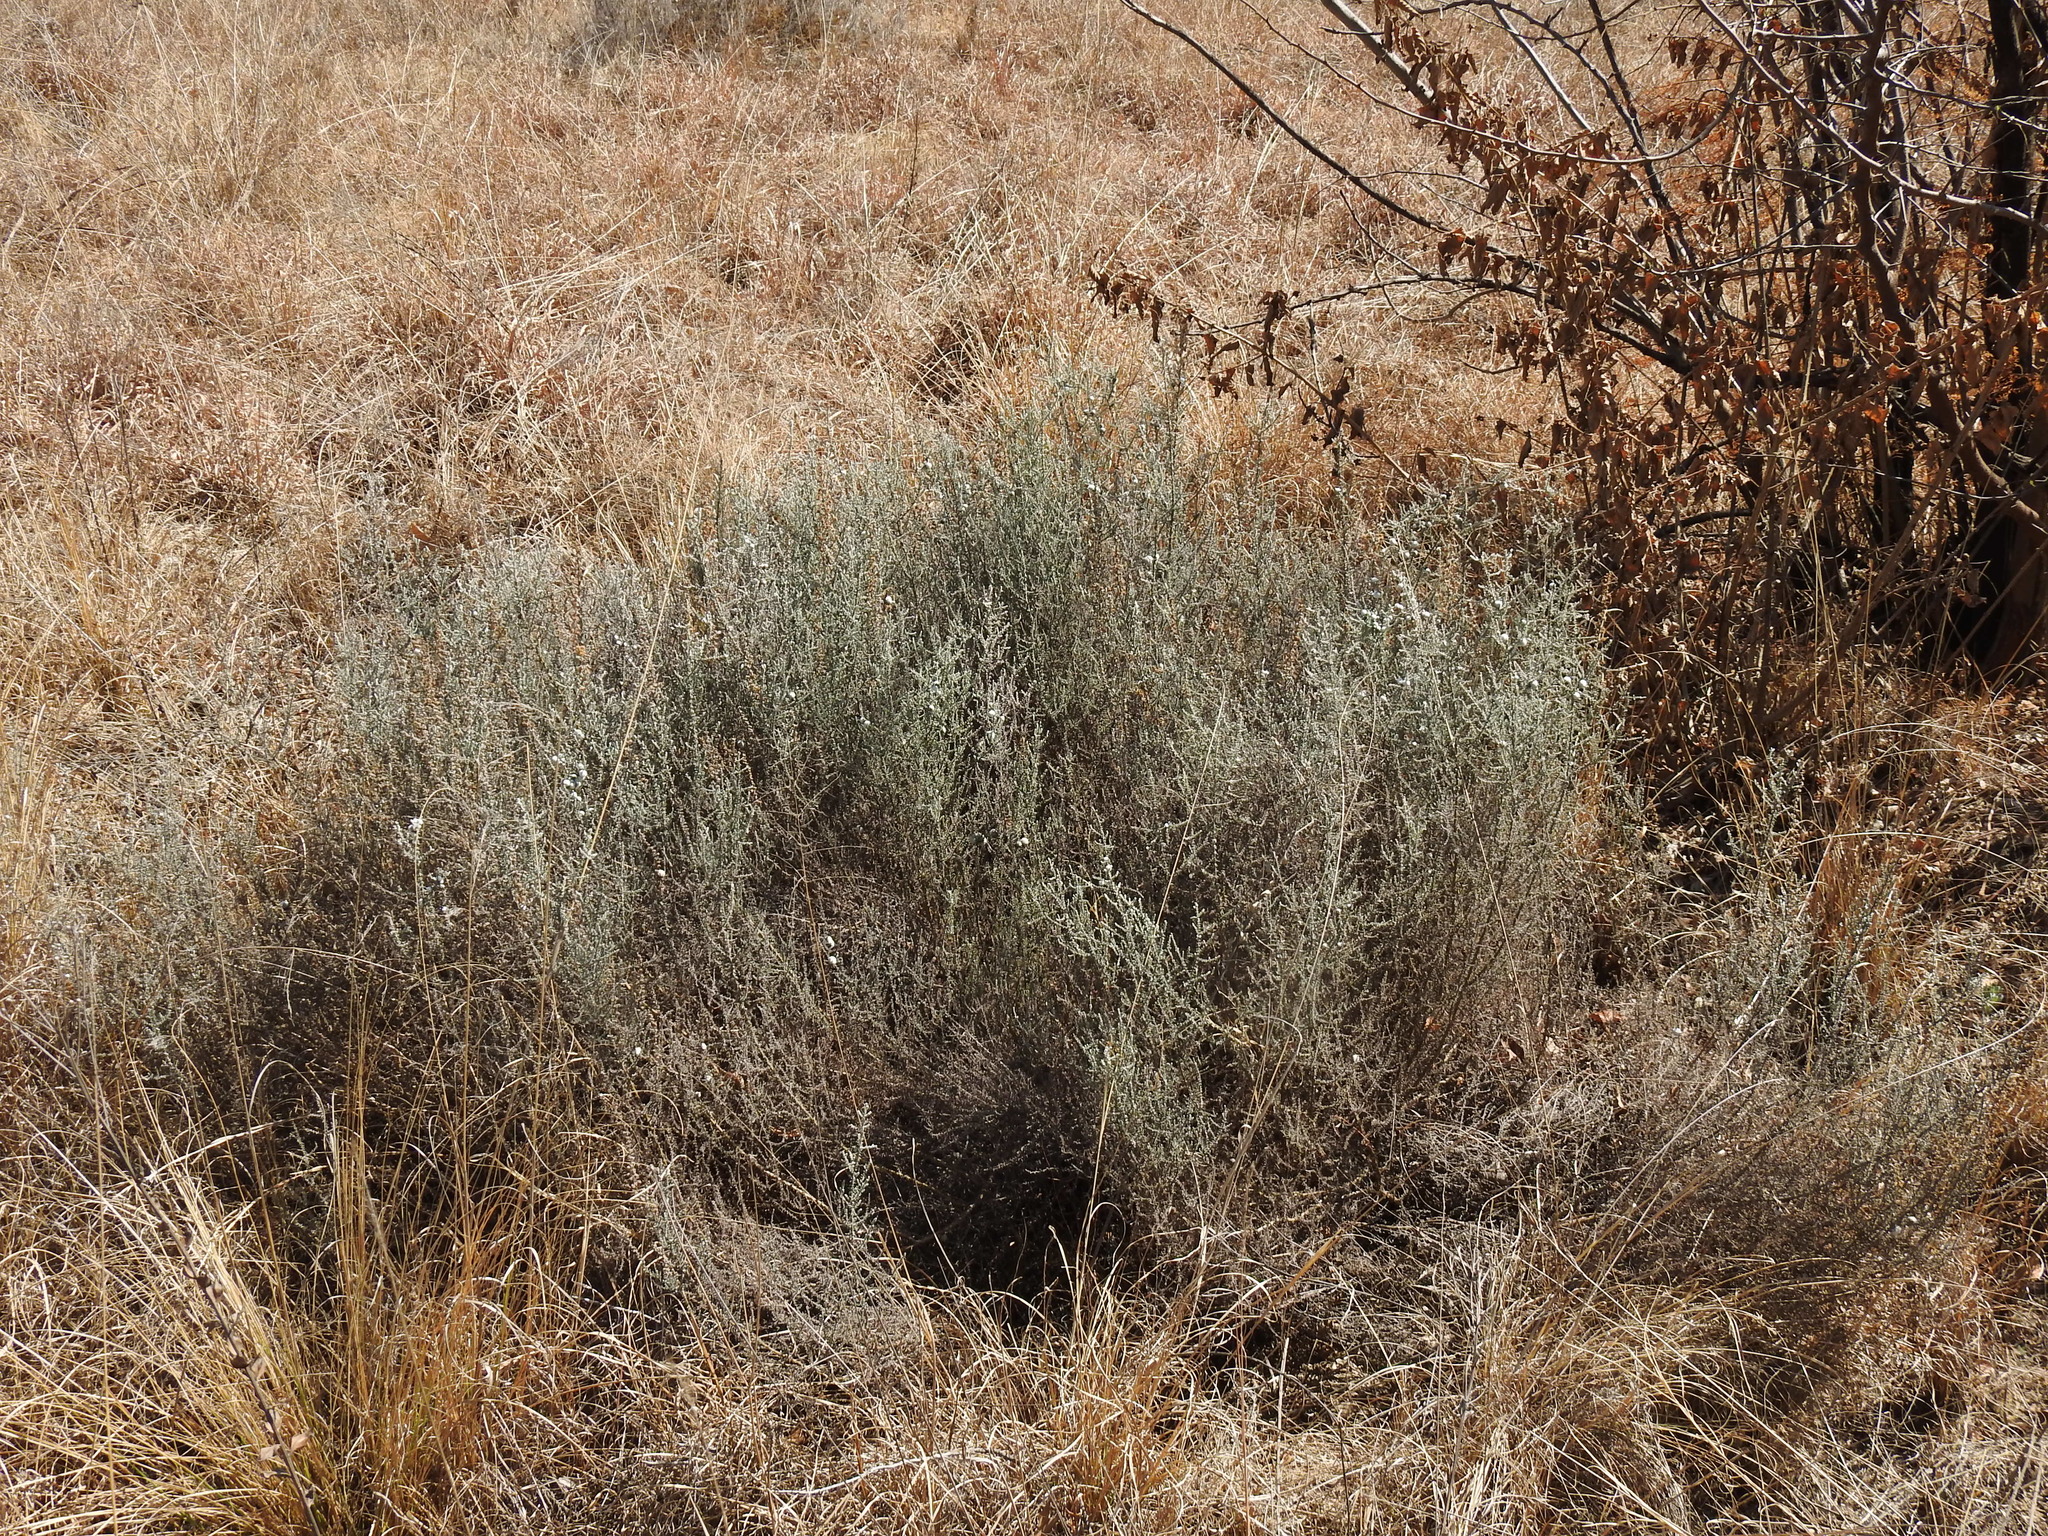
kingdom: Plantae
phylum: Tracheophyta
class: Magnoliopsida
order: Asterales
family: Asteraceae
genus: Seriphium
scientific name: Seriphium
